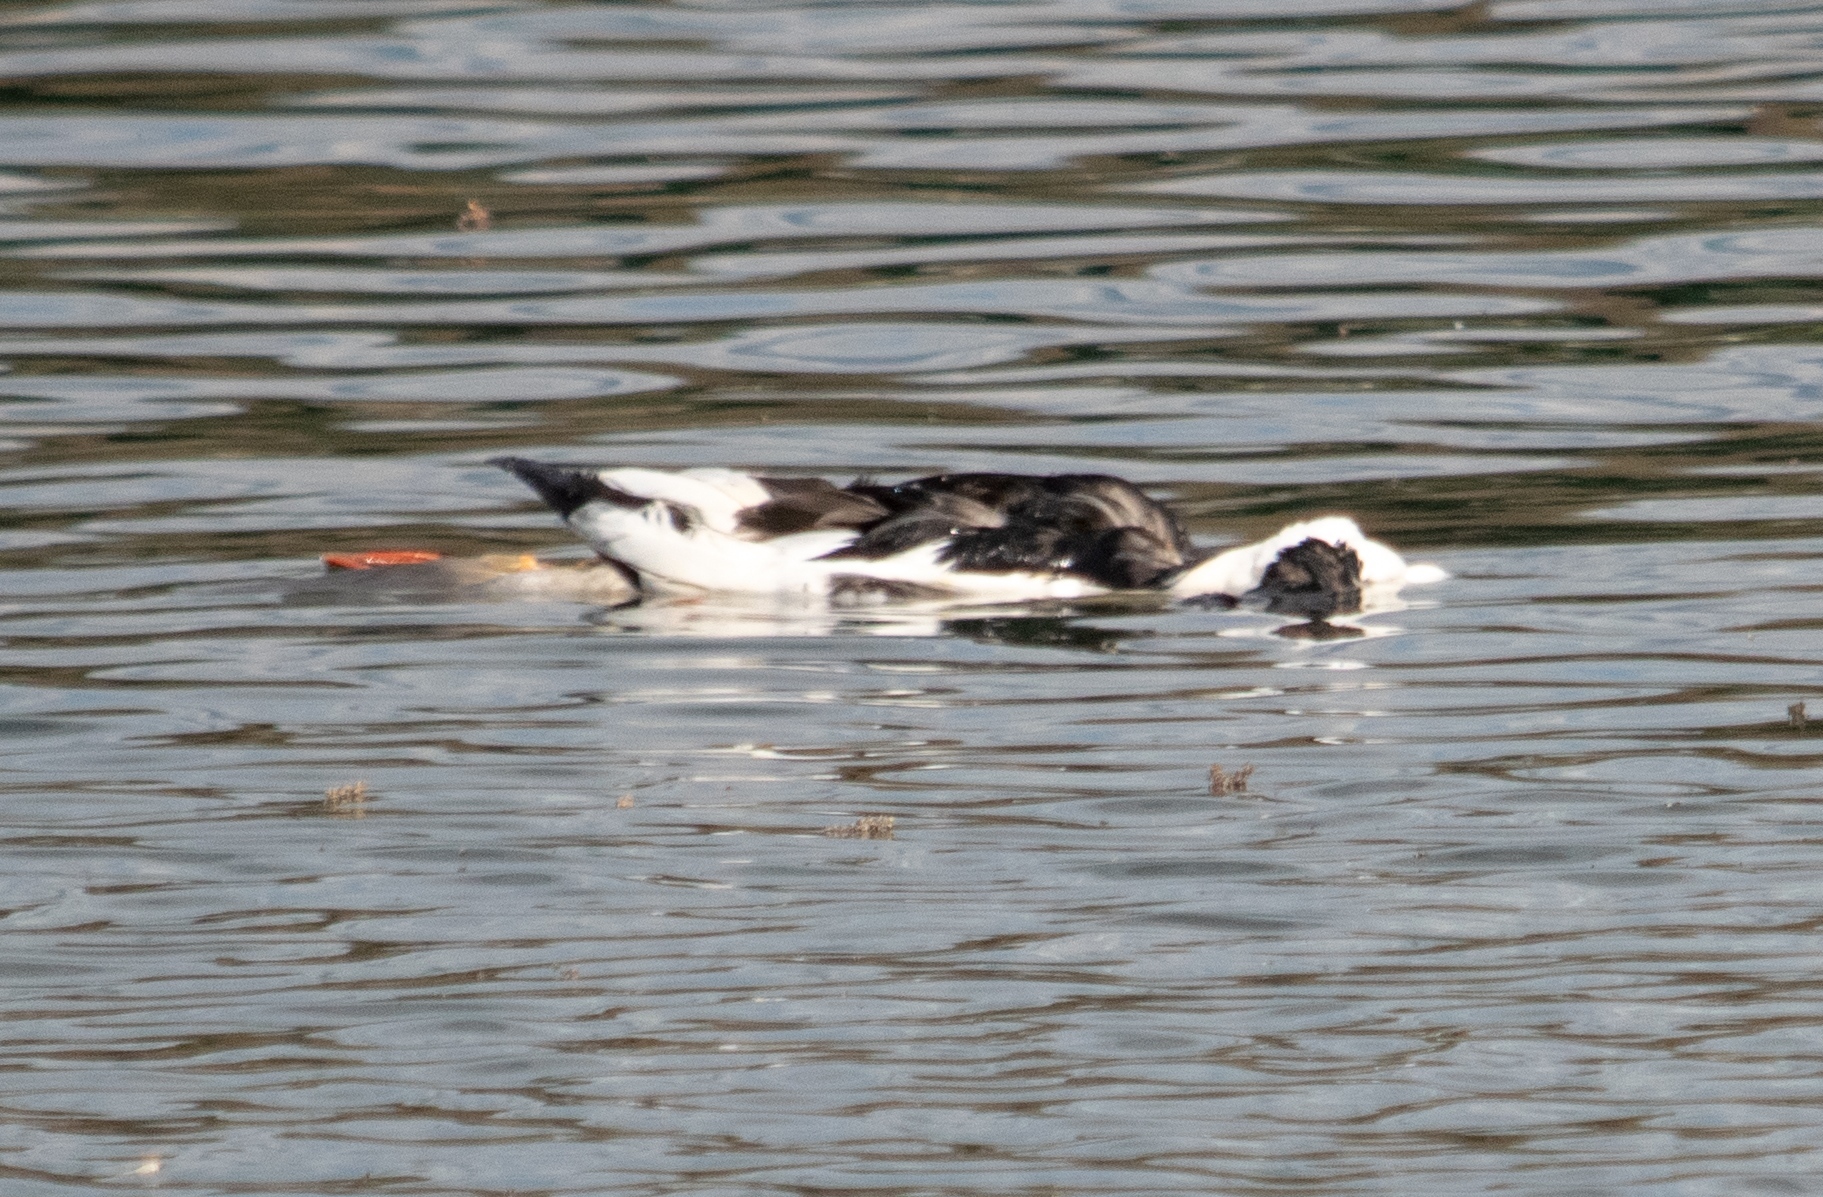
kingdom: Animalia
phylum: Chordata
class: Aves
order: Anseriformes
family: Anatidae
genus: Cairina
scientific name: Cairina moschata
